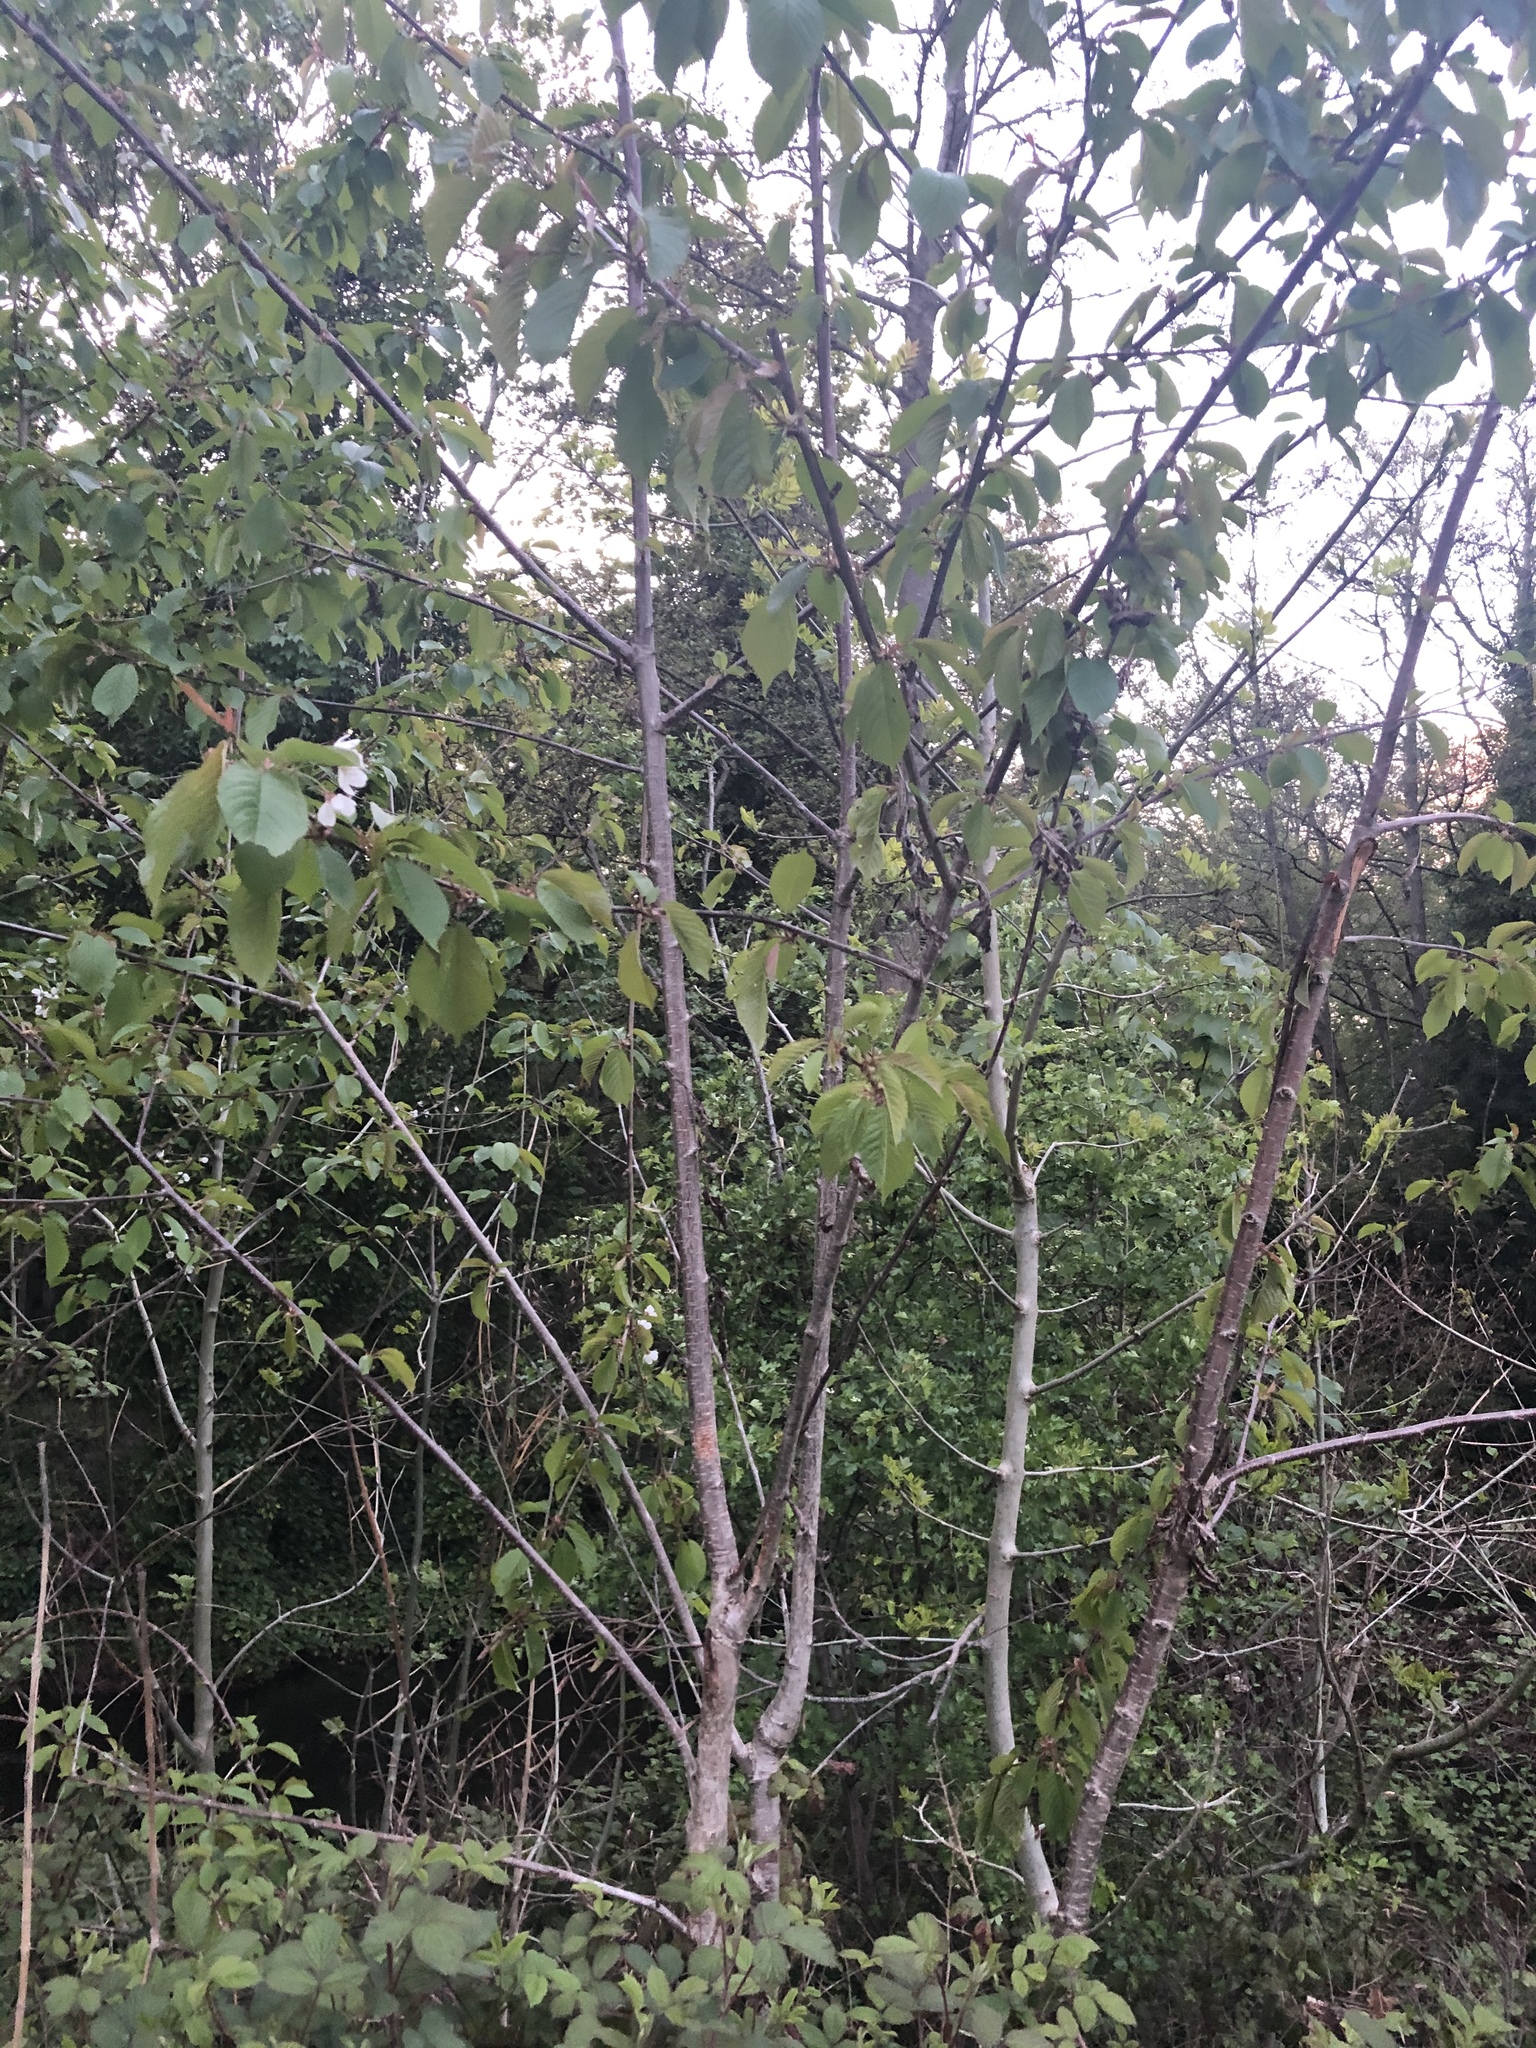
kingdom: Plantae
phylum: Tracheophyta
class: Magnoliopsida
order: Rosales
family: Rosaceae
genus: Prunus
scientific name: Prunus avium
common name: Sweet cherry
